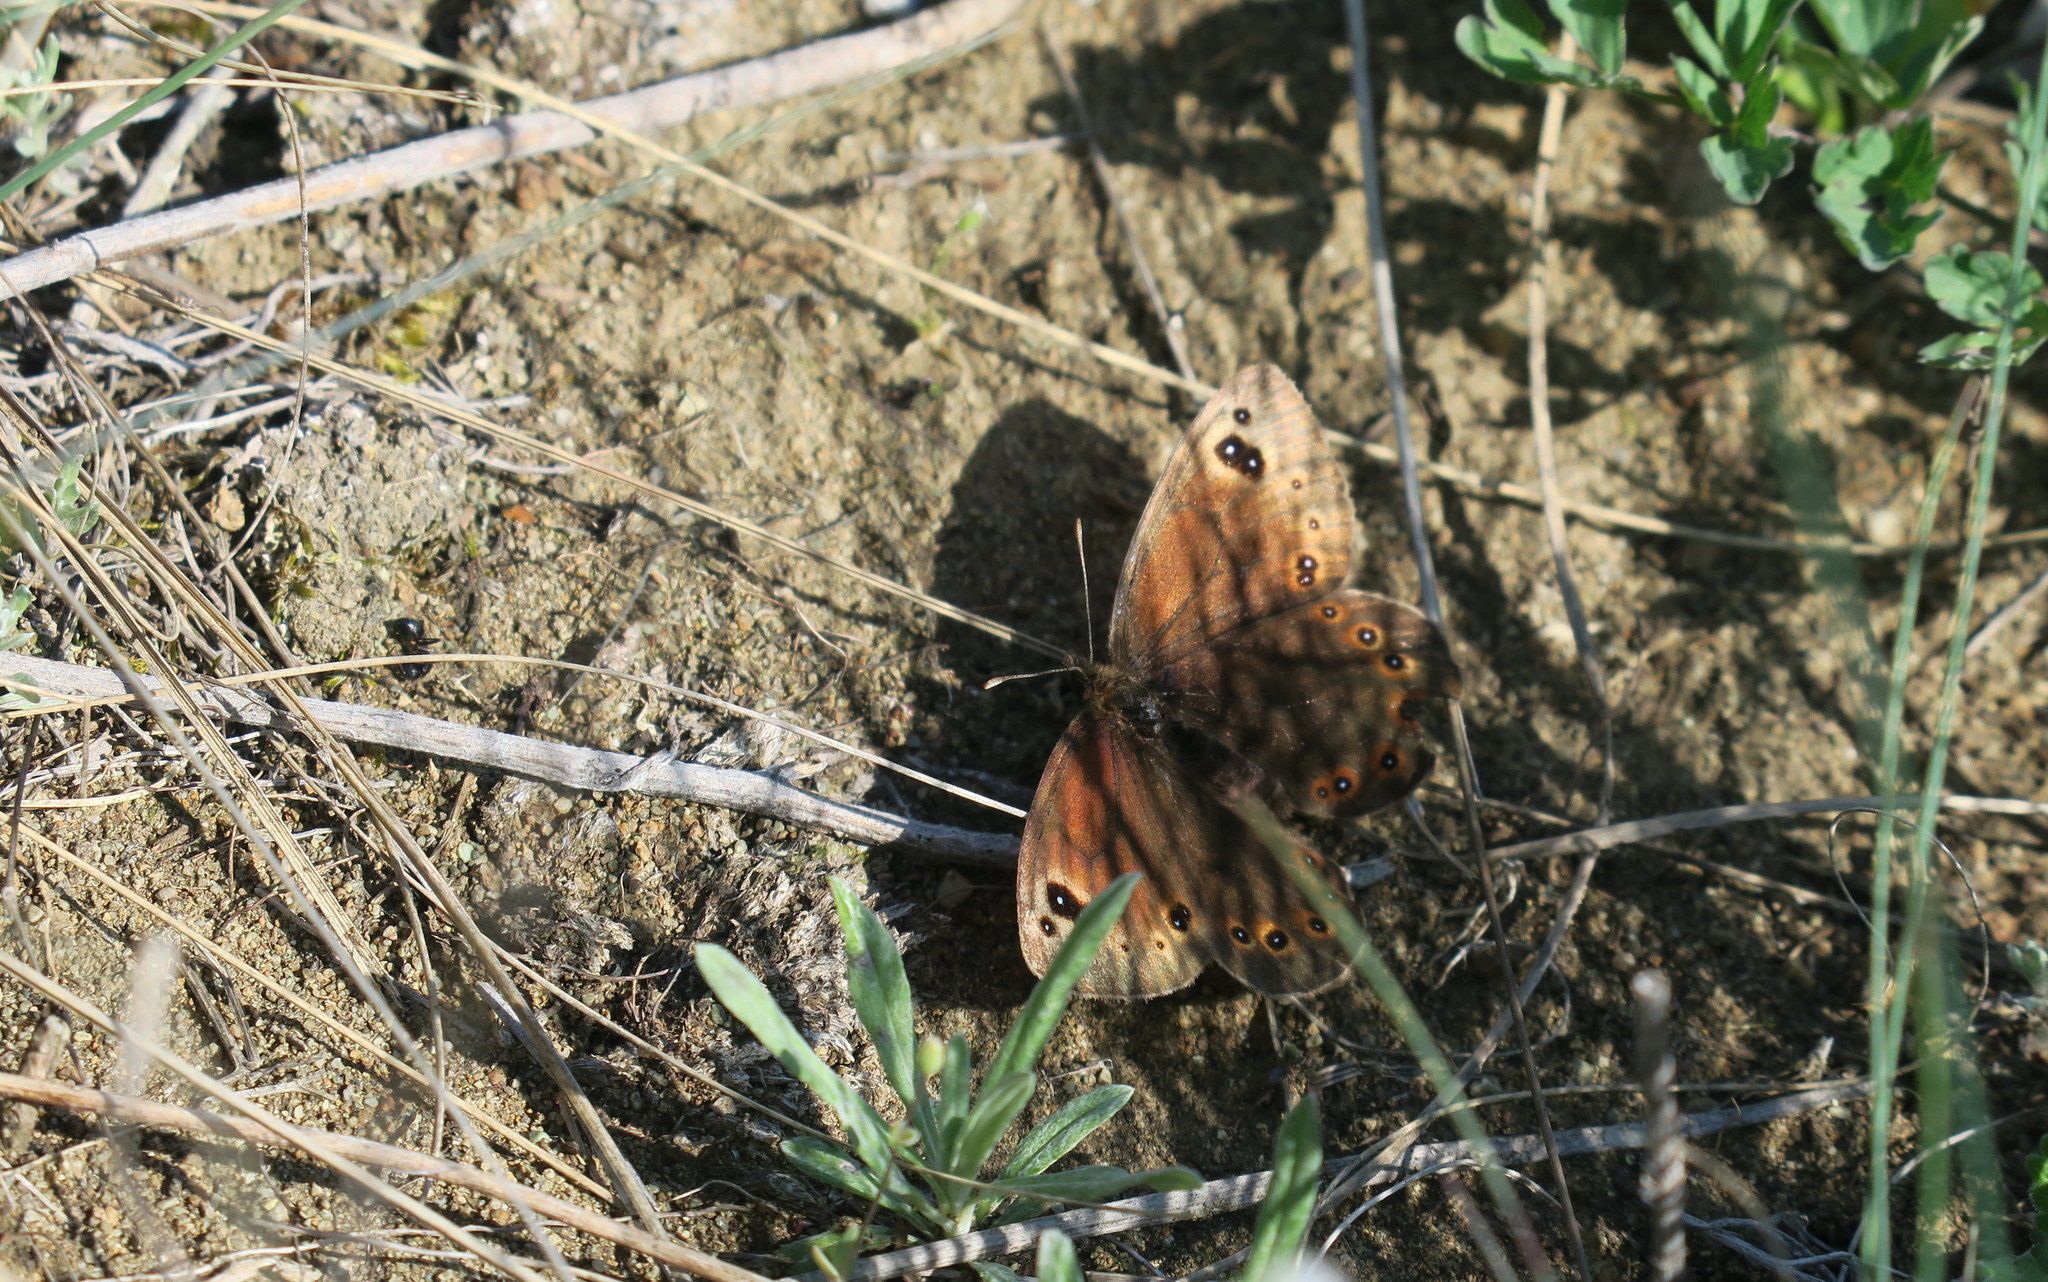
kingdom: Animalia
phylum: Arthropoda
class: Insecta
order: Lepidoptera
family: Nymphalidae
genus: Proterebia
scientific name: Proterebia afra
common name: Dalmatian ringlet
